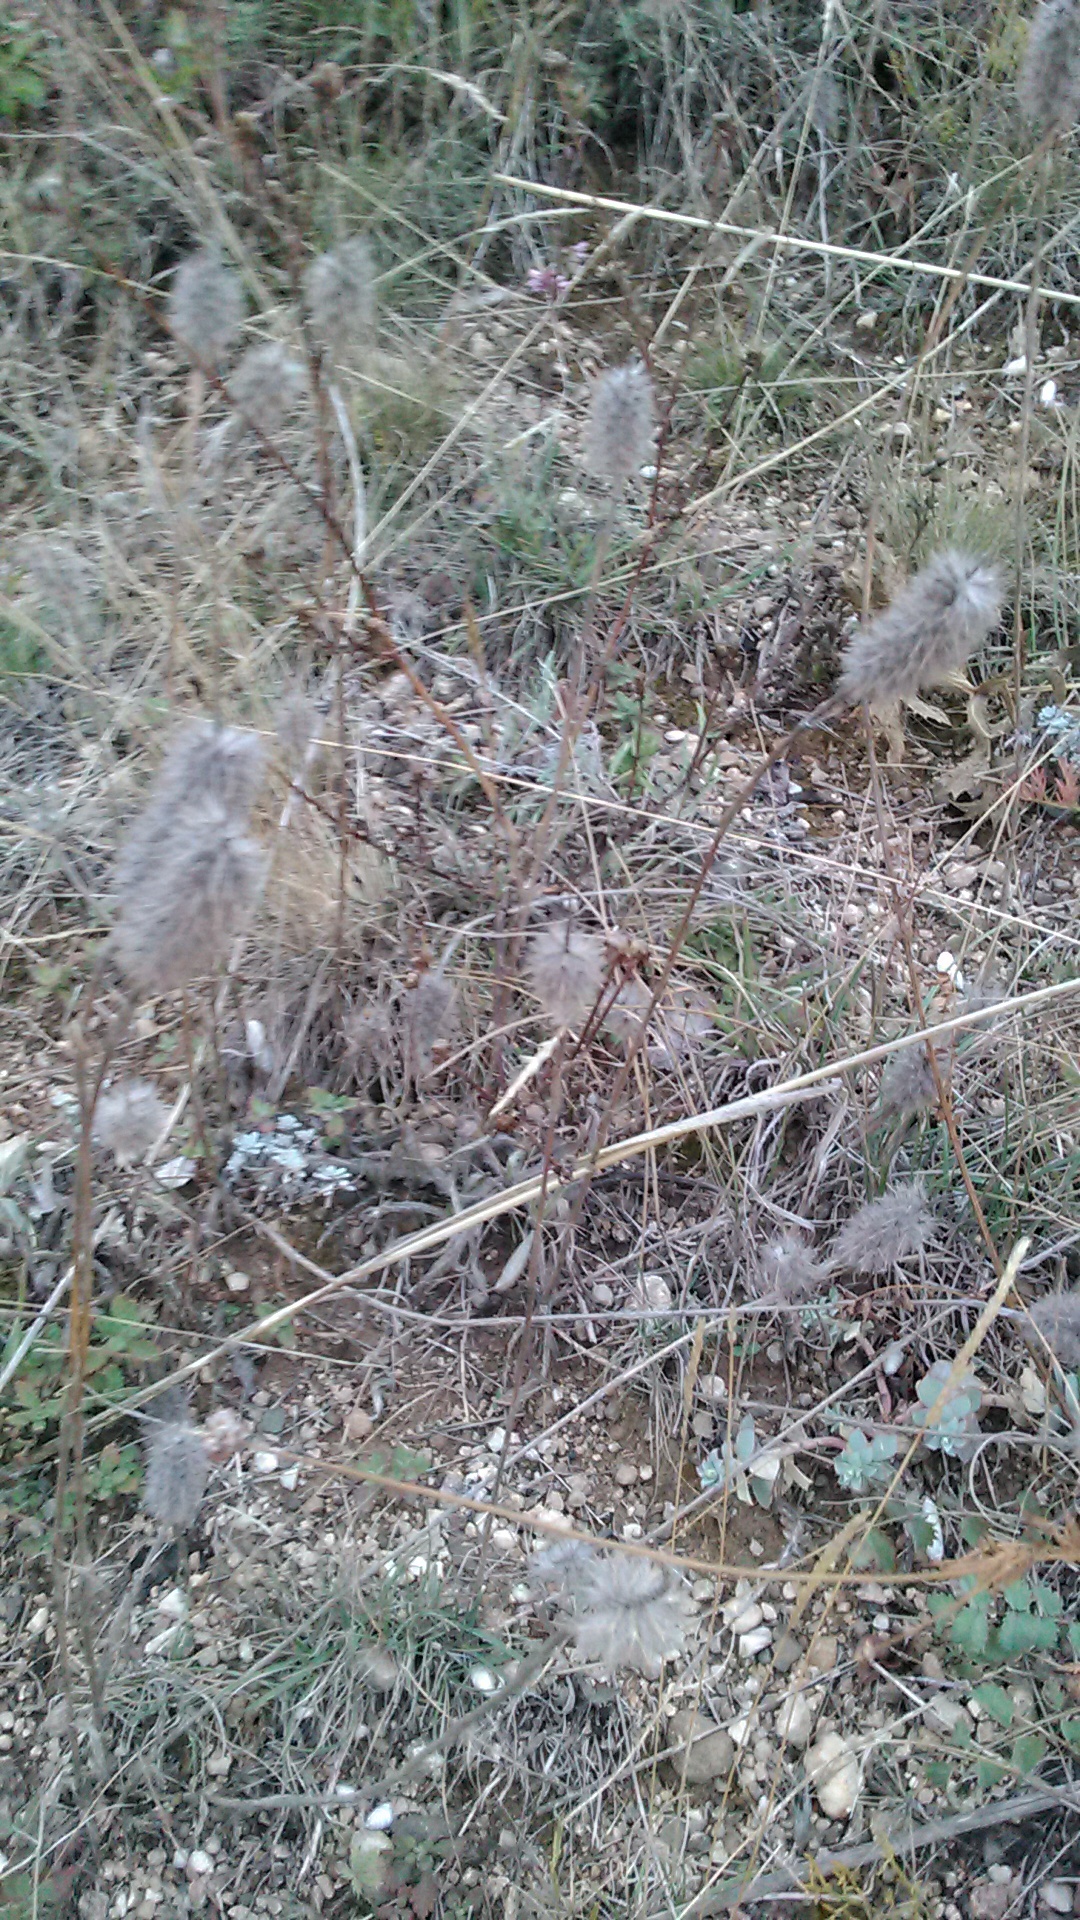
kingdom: Plantae
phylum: Tracheophyta
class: Magnoliopsida
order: Fabales
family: Fabaceae
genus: Trifolium
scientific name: Trifolium angustifolium
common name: Narrow clover
